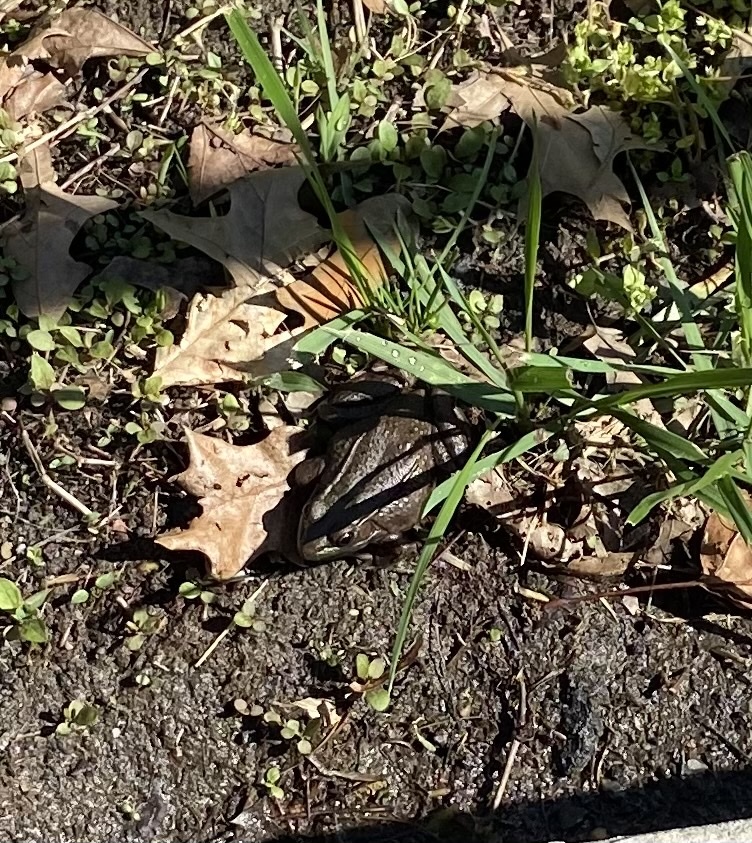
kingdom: Animalia
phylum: Chordata
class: Amphibia
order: Anura
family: Ranidae
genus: Lithobates
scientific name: Lithobates clamitans
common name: Green frog
